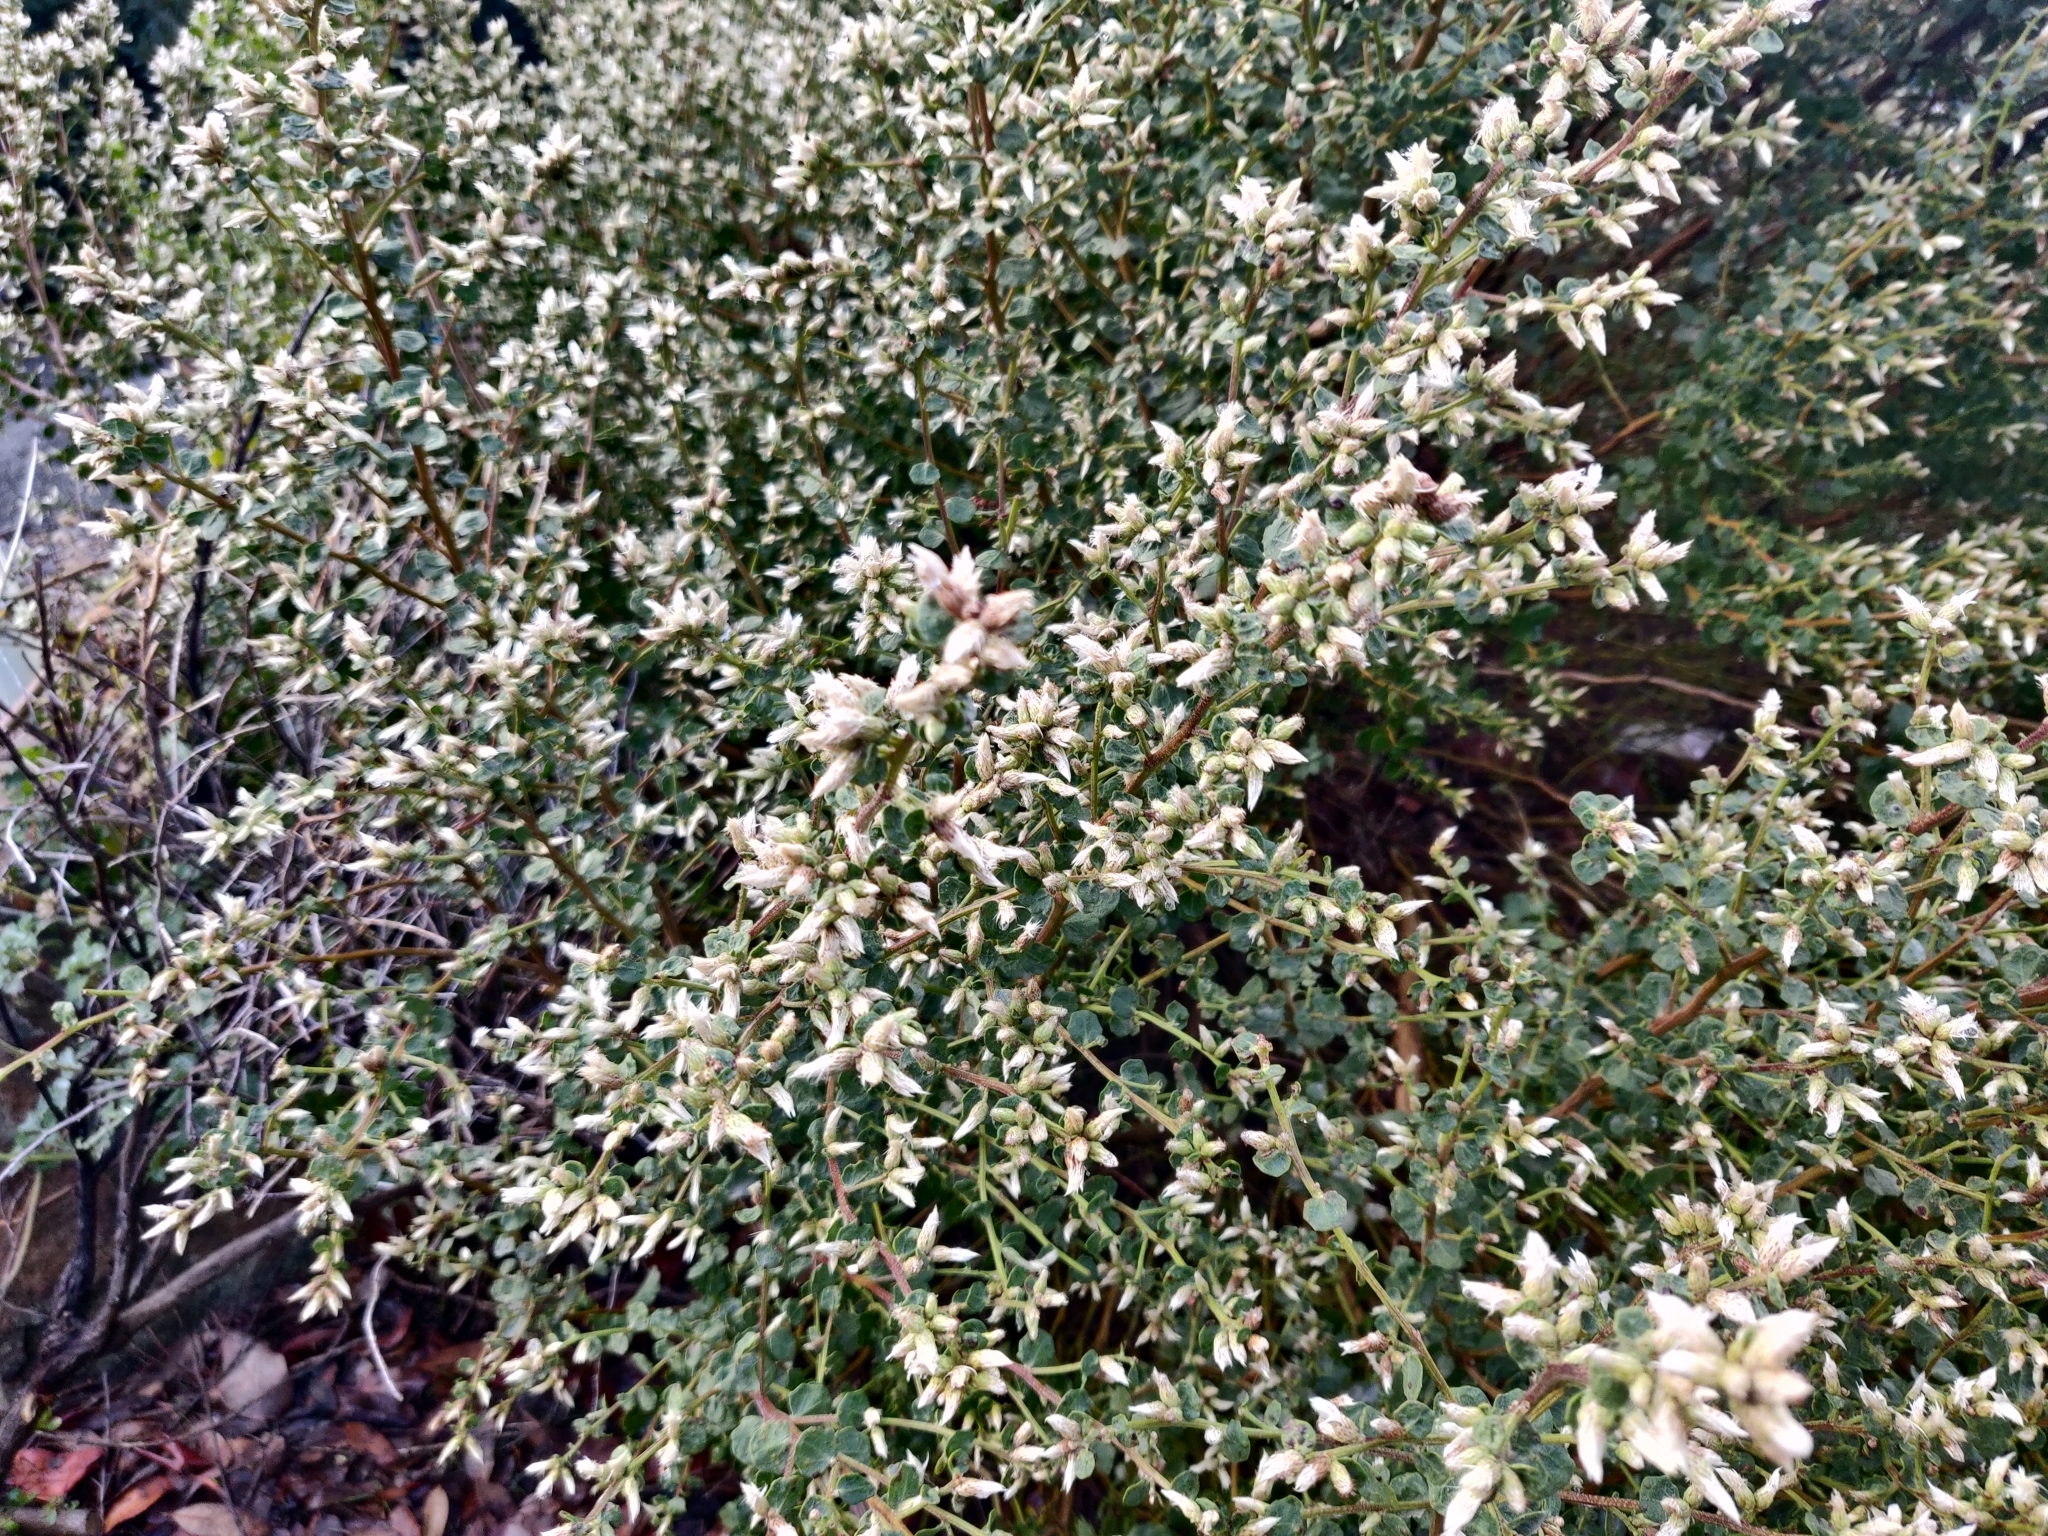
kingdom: Plantae
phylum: Tracheophyta
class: Magnoliopsida
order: Asterales
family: Asteraceae
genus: Baccharis
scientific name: Baccharis pilularis
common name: Coyotebrush
